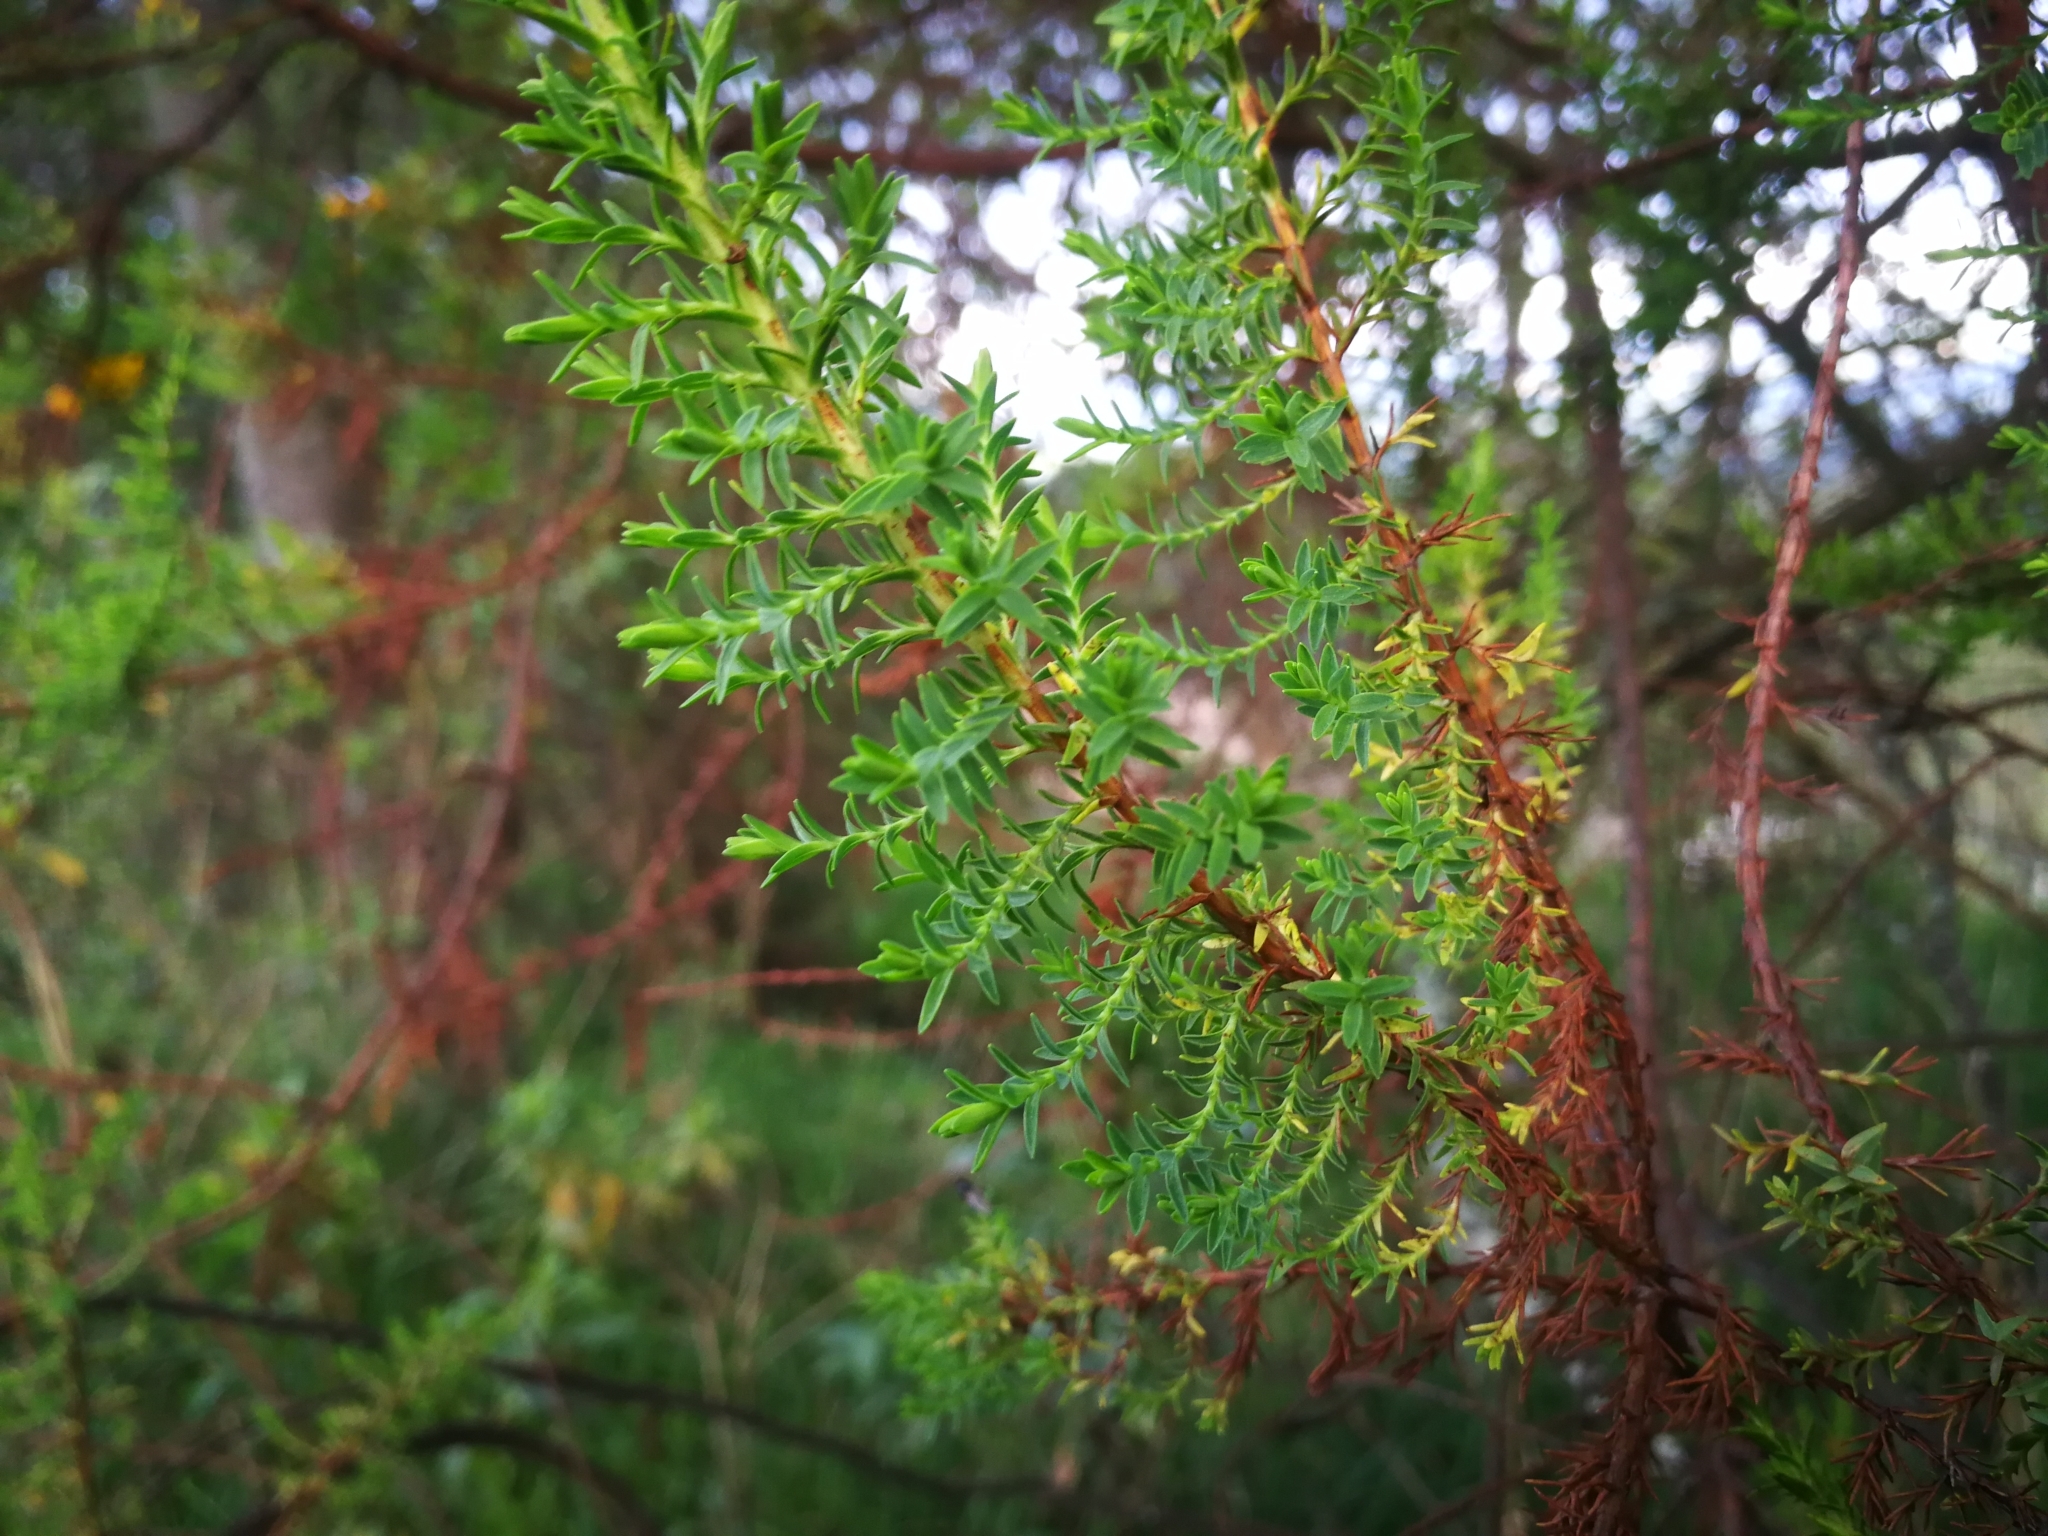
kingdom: Plantae
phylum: Tracheophyta
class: Magnoliopsida
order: Malpighiales
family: Hypericaceae
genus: Hypericum
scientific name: Hypericum laricifolium
